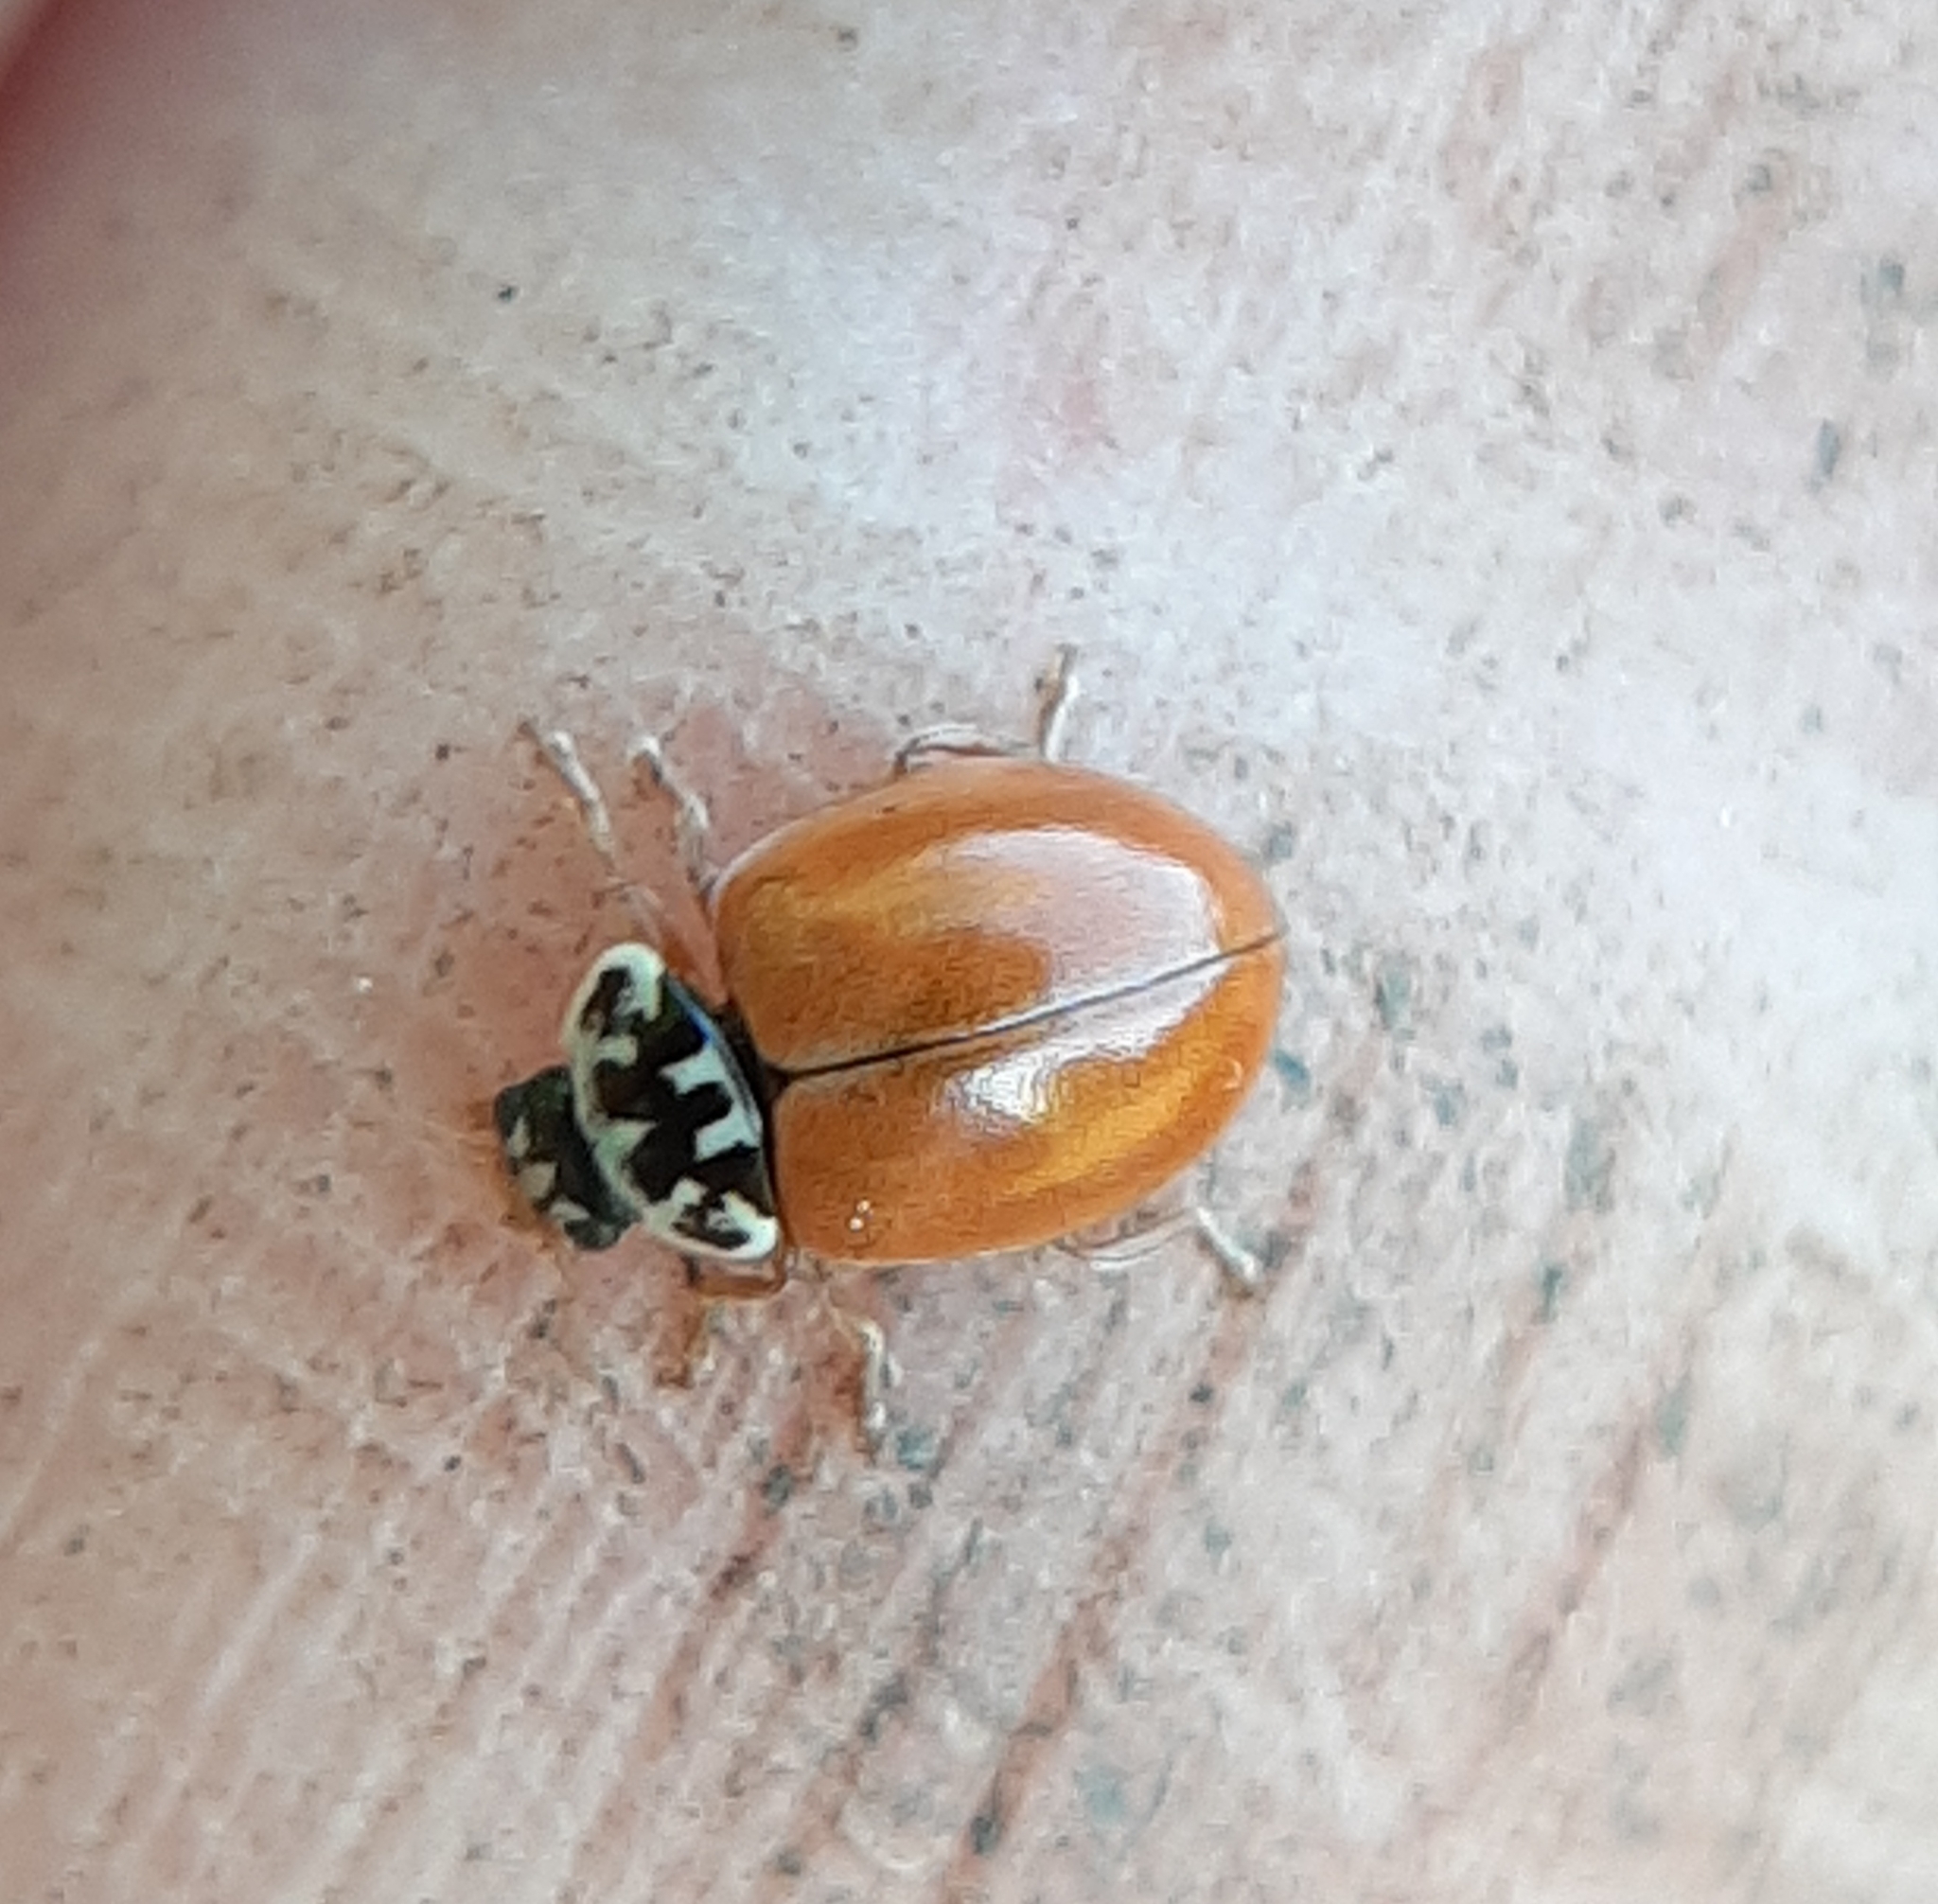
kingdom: Animalia
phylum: Arthropoda
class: Insecta
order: Coleoptera
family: Coccinellidae
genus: Mulsantina
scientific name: Mulsantina picta
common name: Painted ladybird
